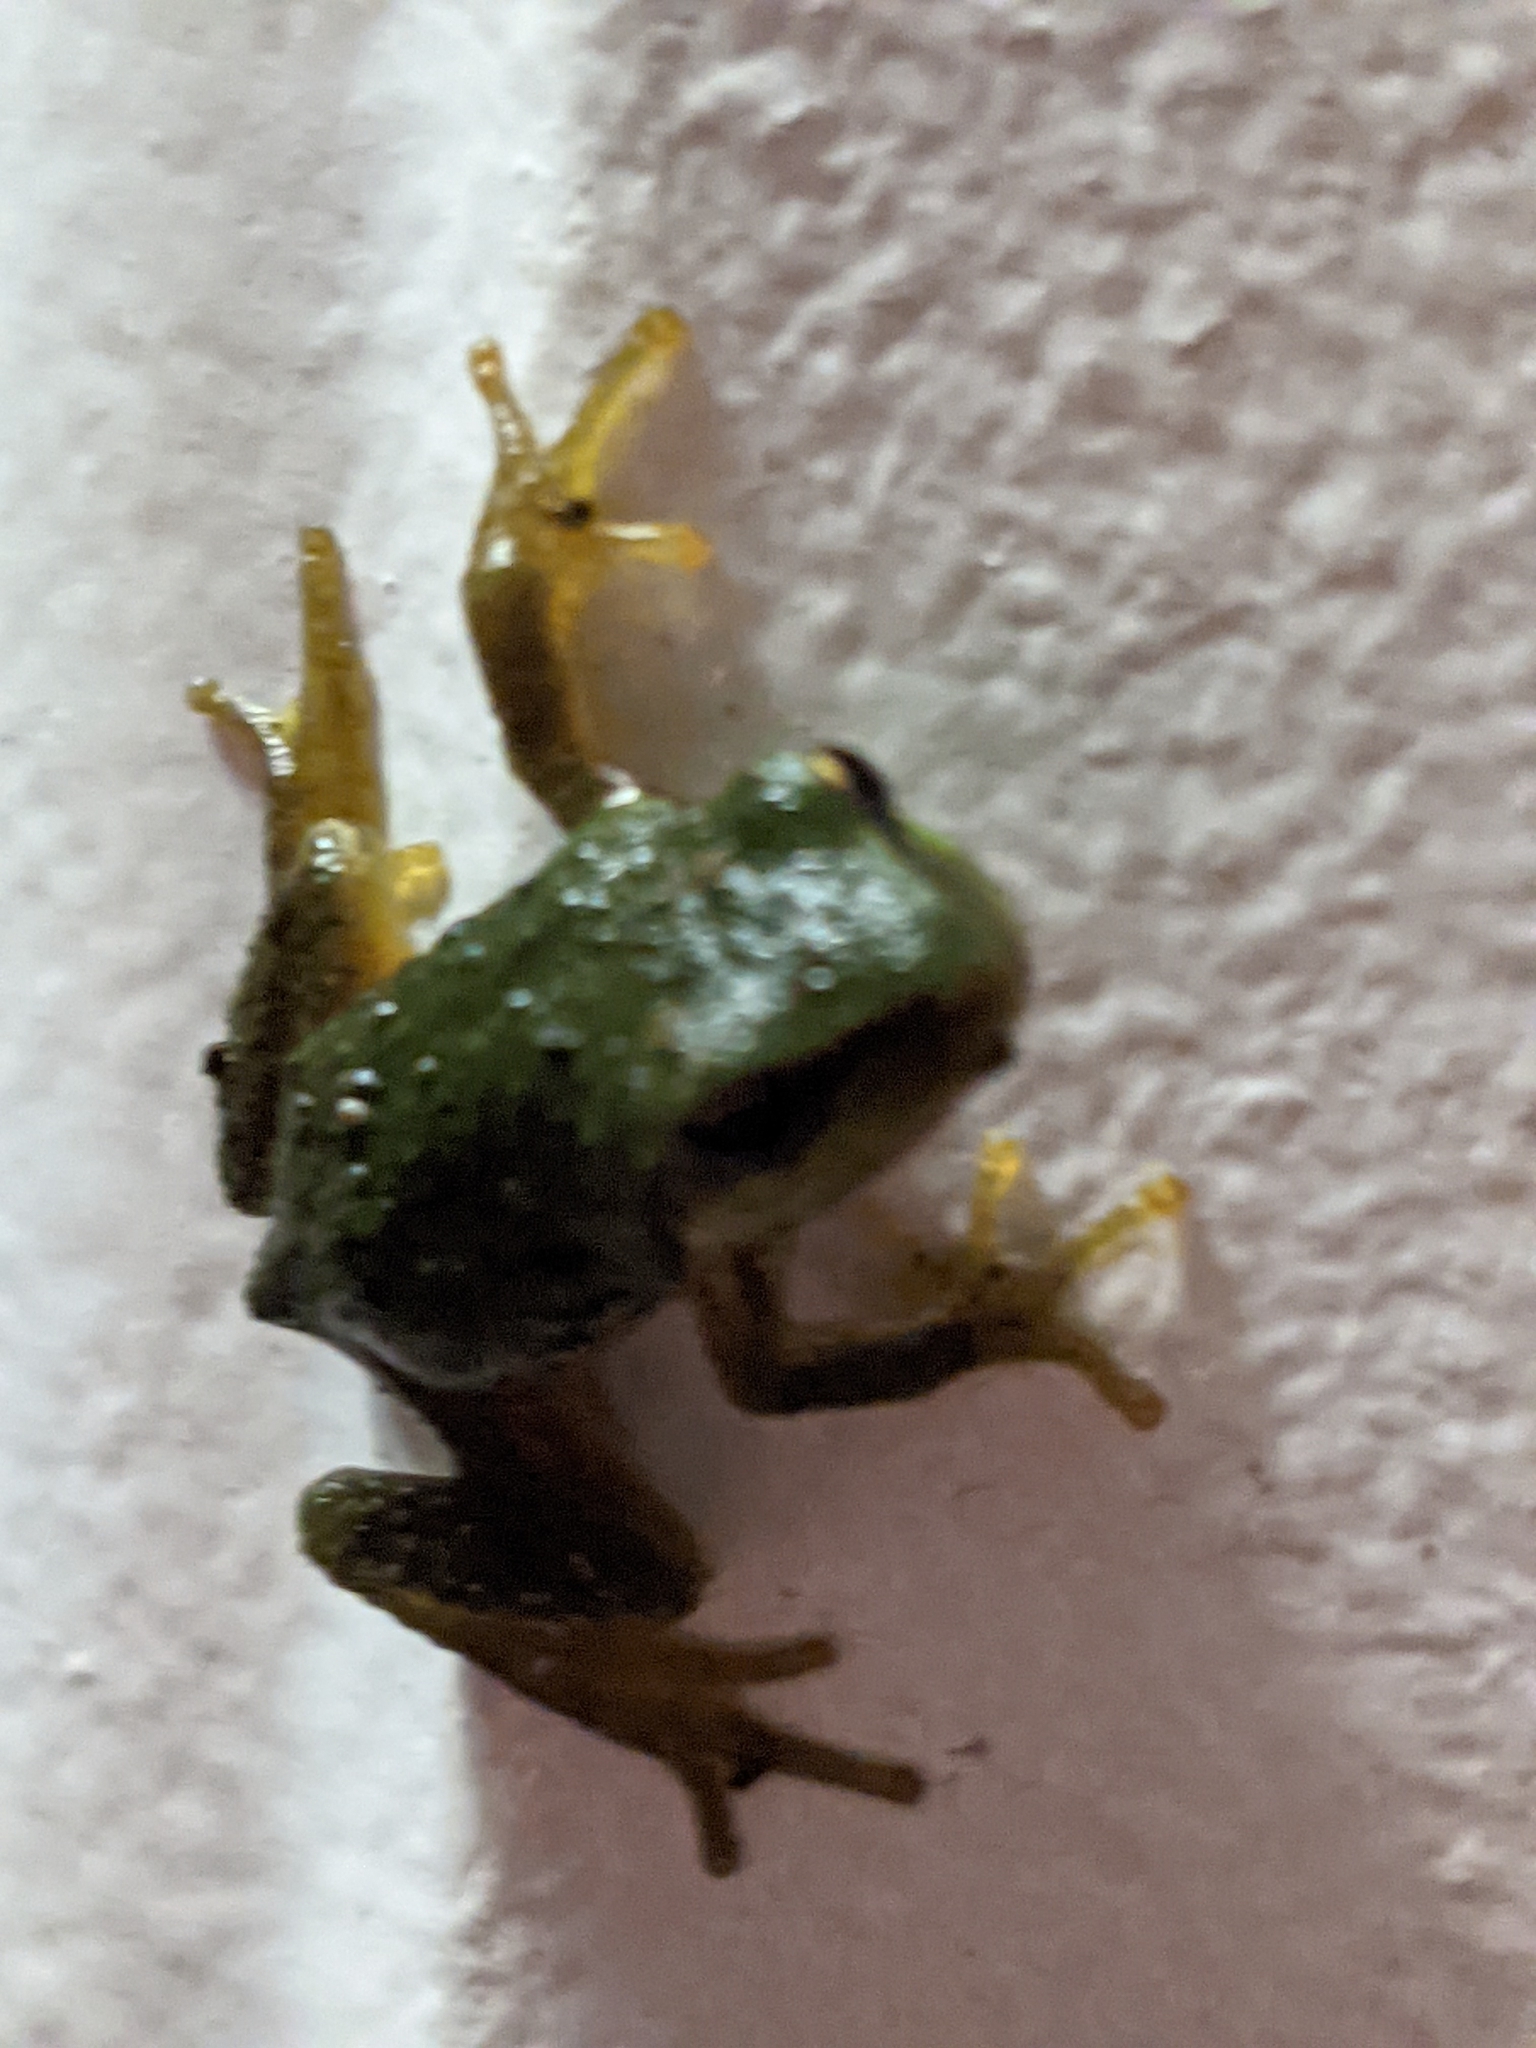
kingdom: Animalia
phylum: Chordata
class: Amphibia
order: Anura
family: Hylidae
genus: Pseudacris
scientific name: Pseudacris regilla
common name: Pacific chorus frog
